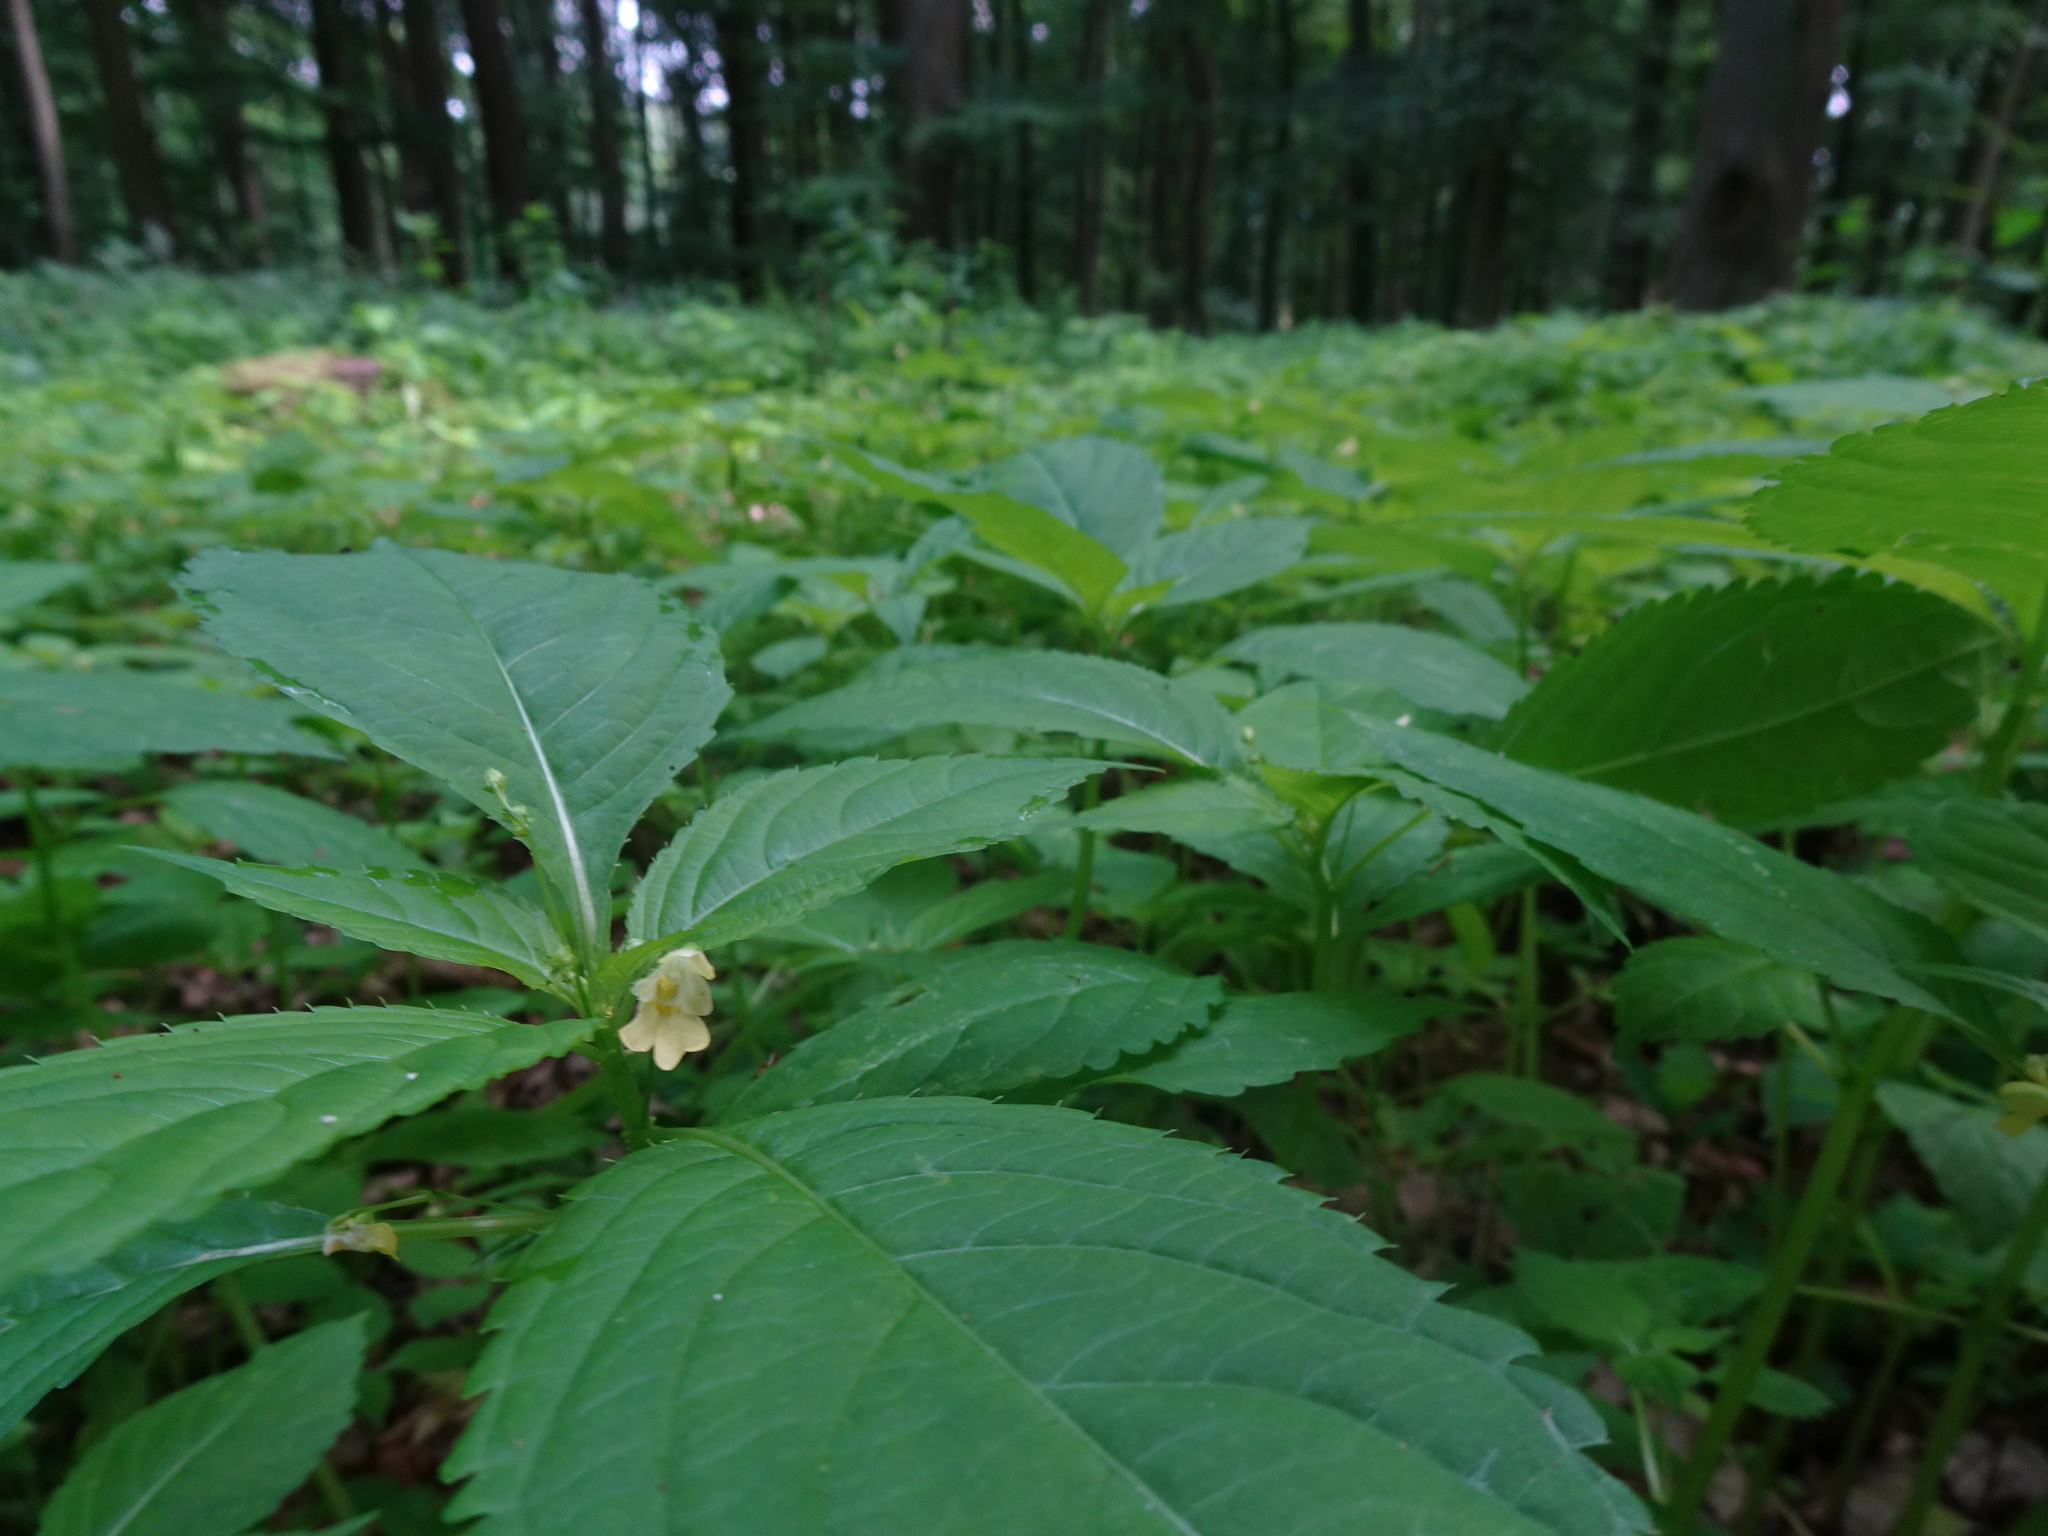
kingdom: Plantae
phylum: Tracheophyta
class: Magnoliopsida
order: Ericales
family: Balsaminaceae
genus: Impatiens
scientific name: Impatiens parviflora
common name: Small balsam
